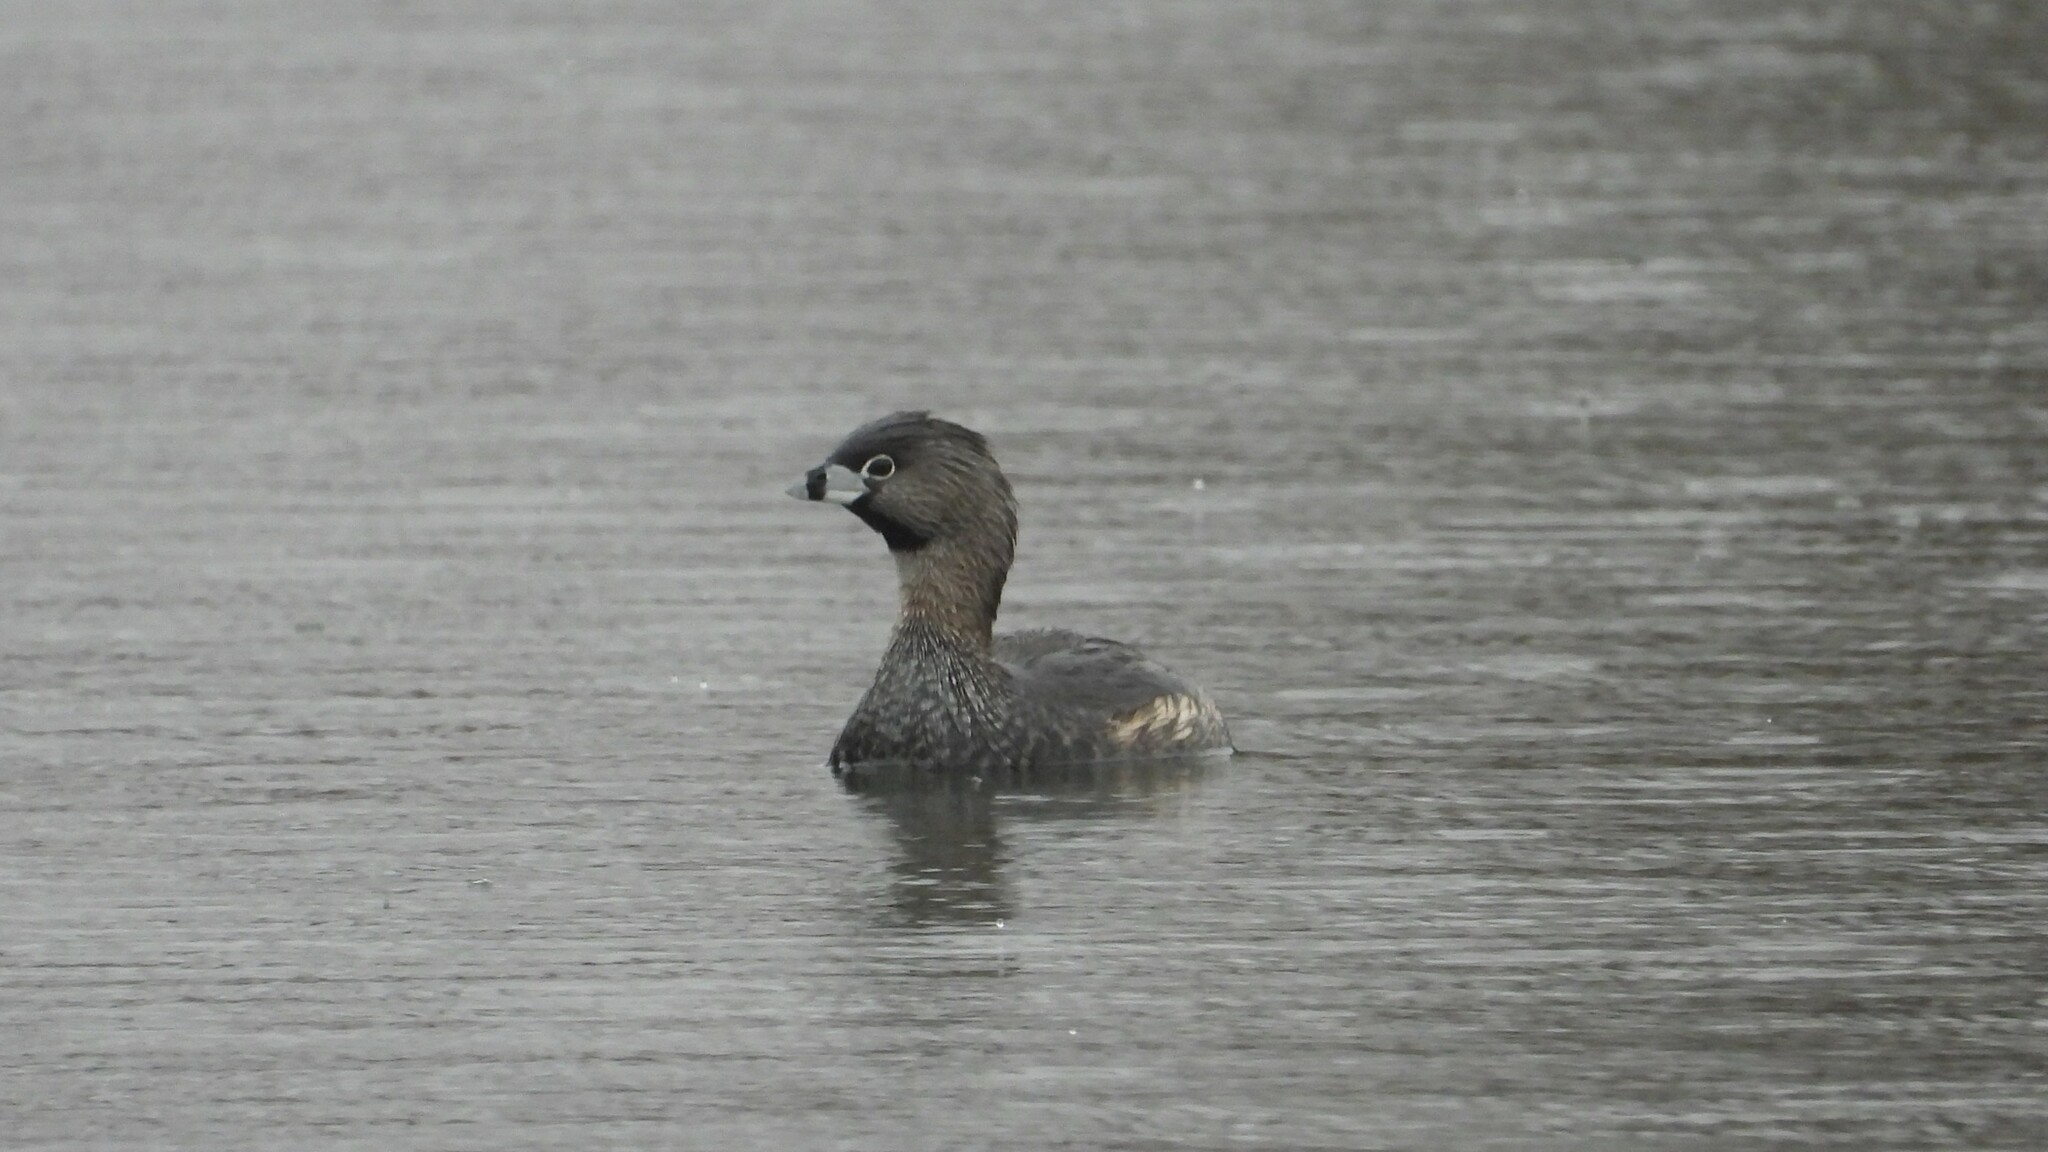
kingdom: Animalia
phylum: Chordata
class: Aves
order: Podicipediformes
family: Podicipedidae
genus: Podilymbus
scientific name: Podilymbus podiceps
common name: Pied-billed grebe
